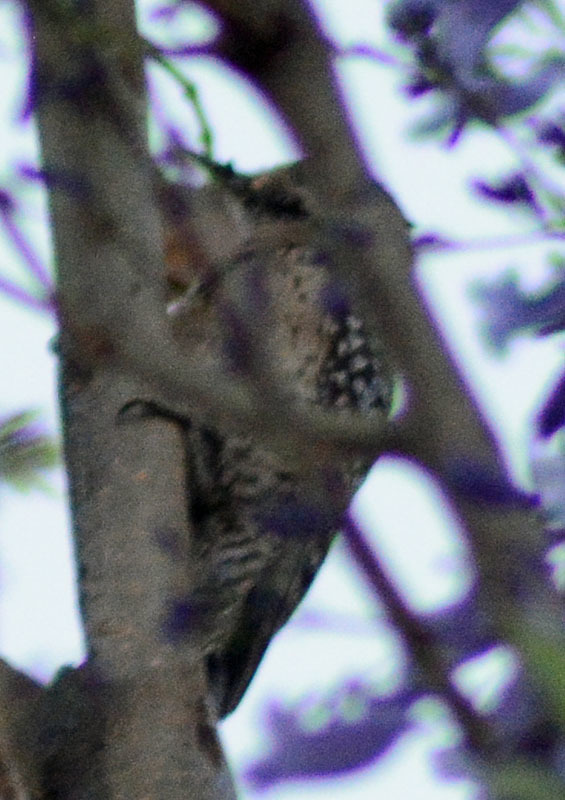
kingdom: Animalia
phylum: Chordata
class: Aves
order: Piciformes
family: Picidae
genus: Dryobates
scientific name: Dryobates scalaris
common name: Ladder-backed woodpecker
